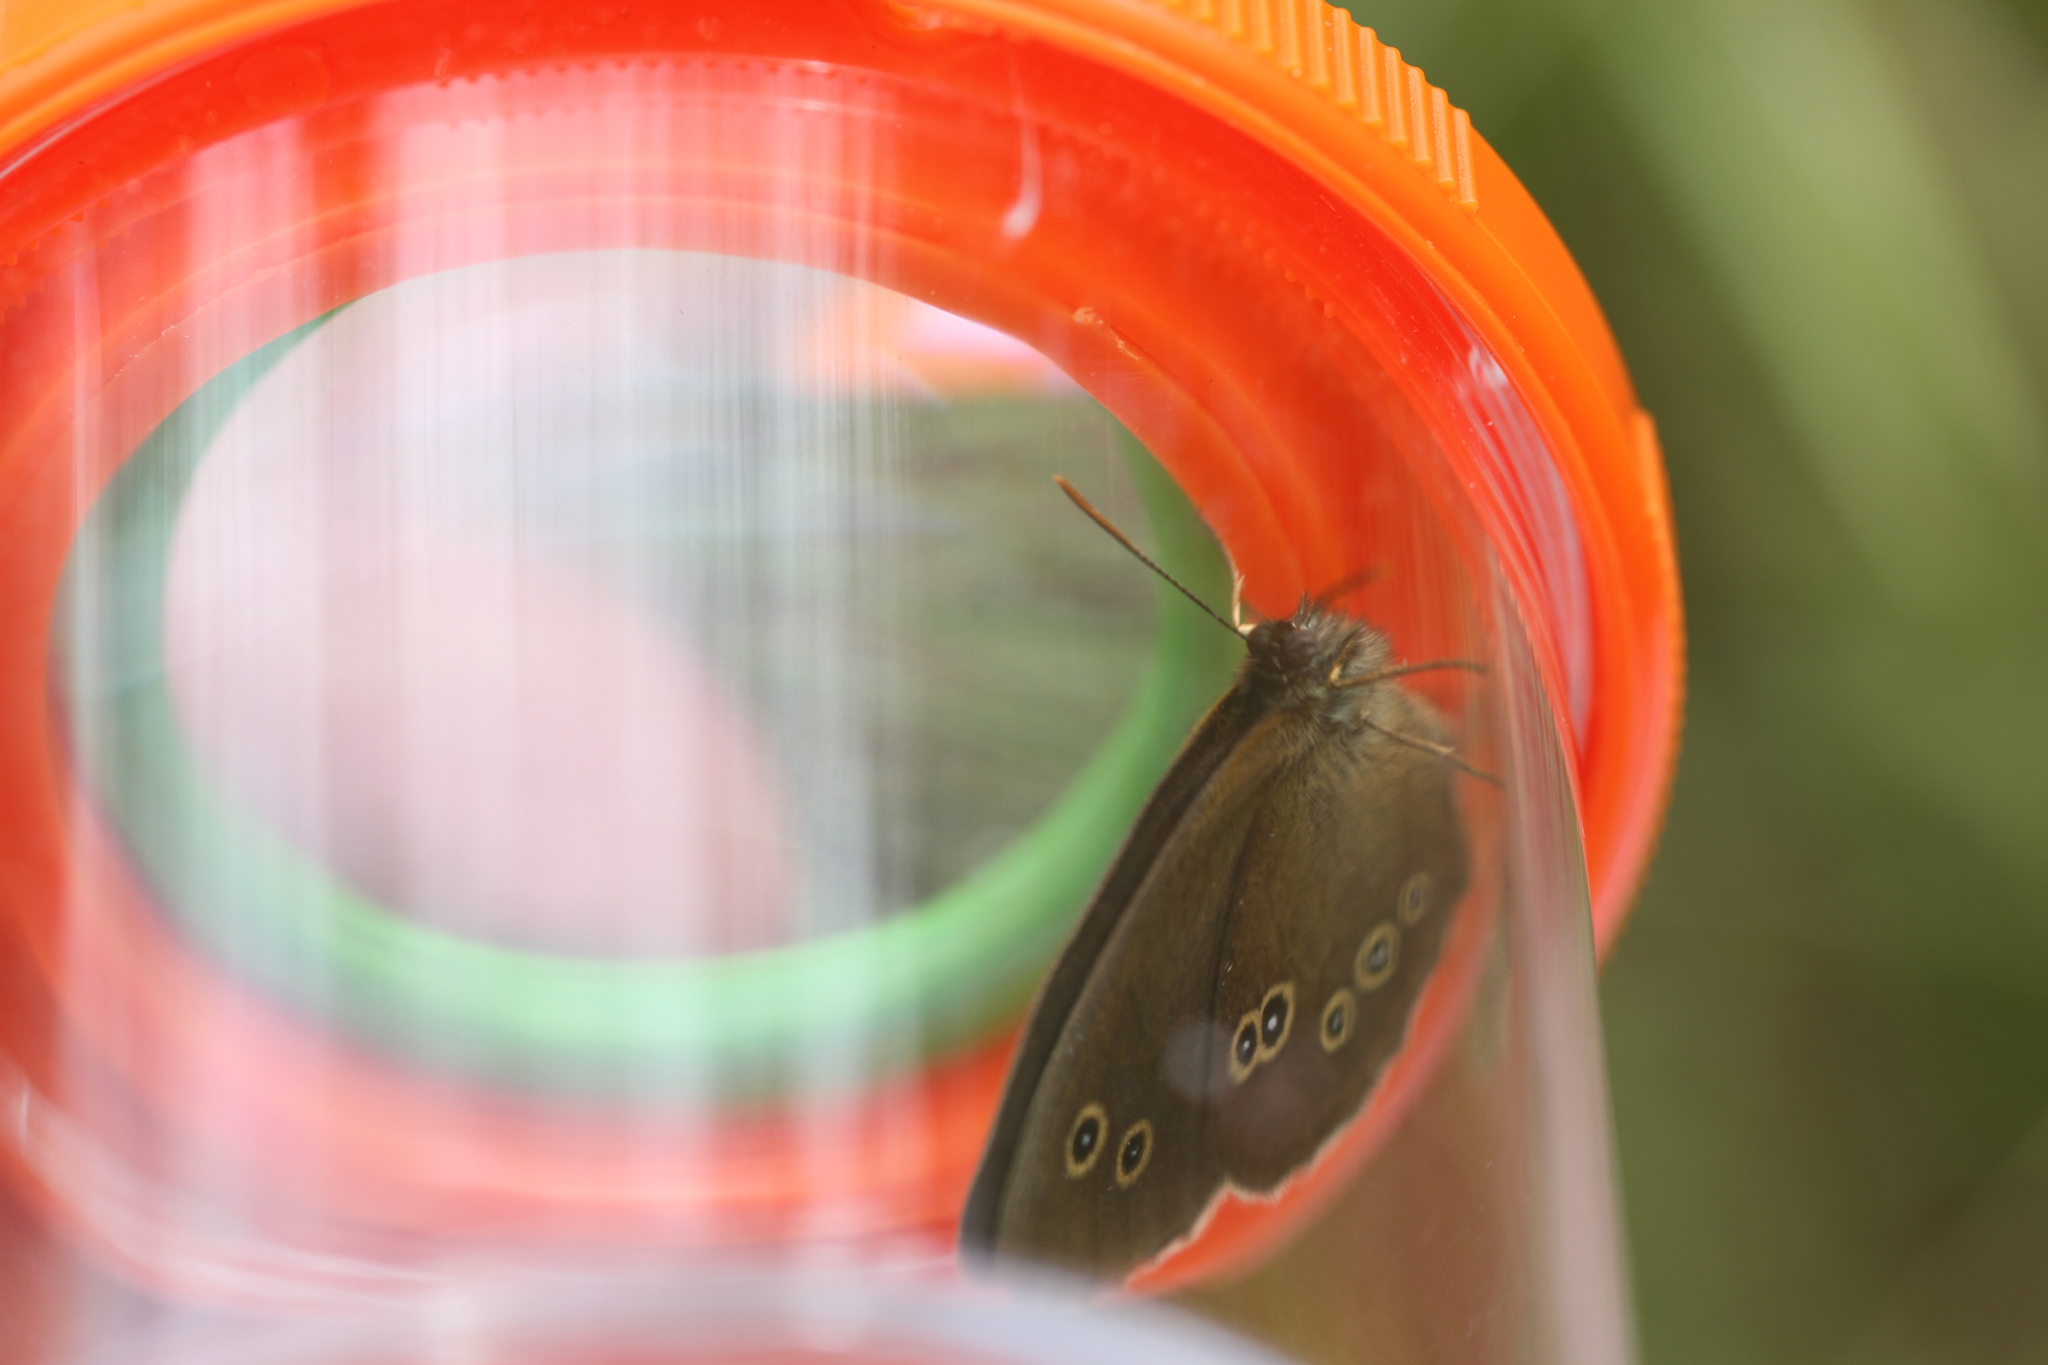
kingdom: Animalia
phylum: Arthropoda
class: Insecta
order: Lepidoptera
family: Nymphalidae
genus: Aphantopus
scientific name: Aphantopus hyperantus
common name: Ringlet
